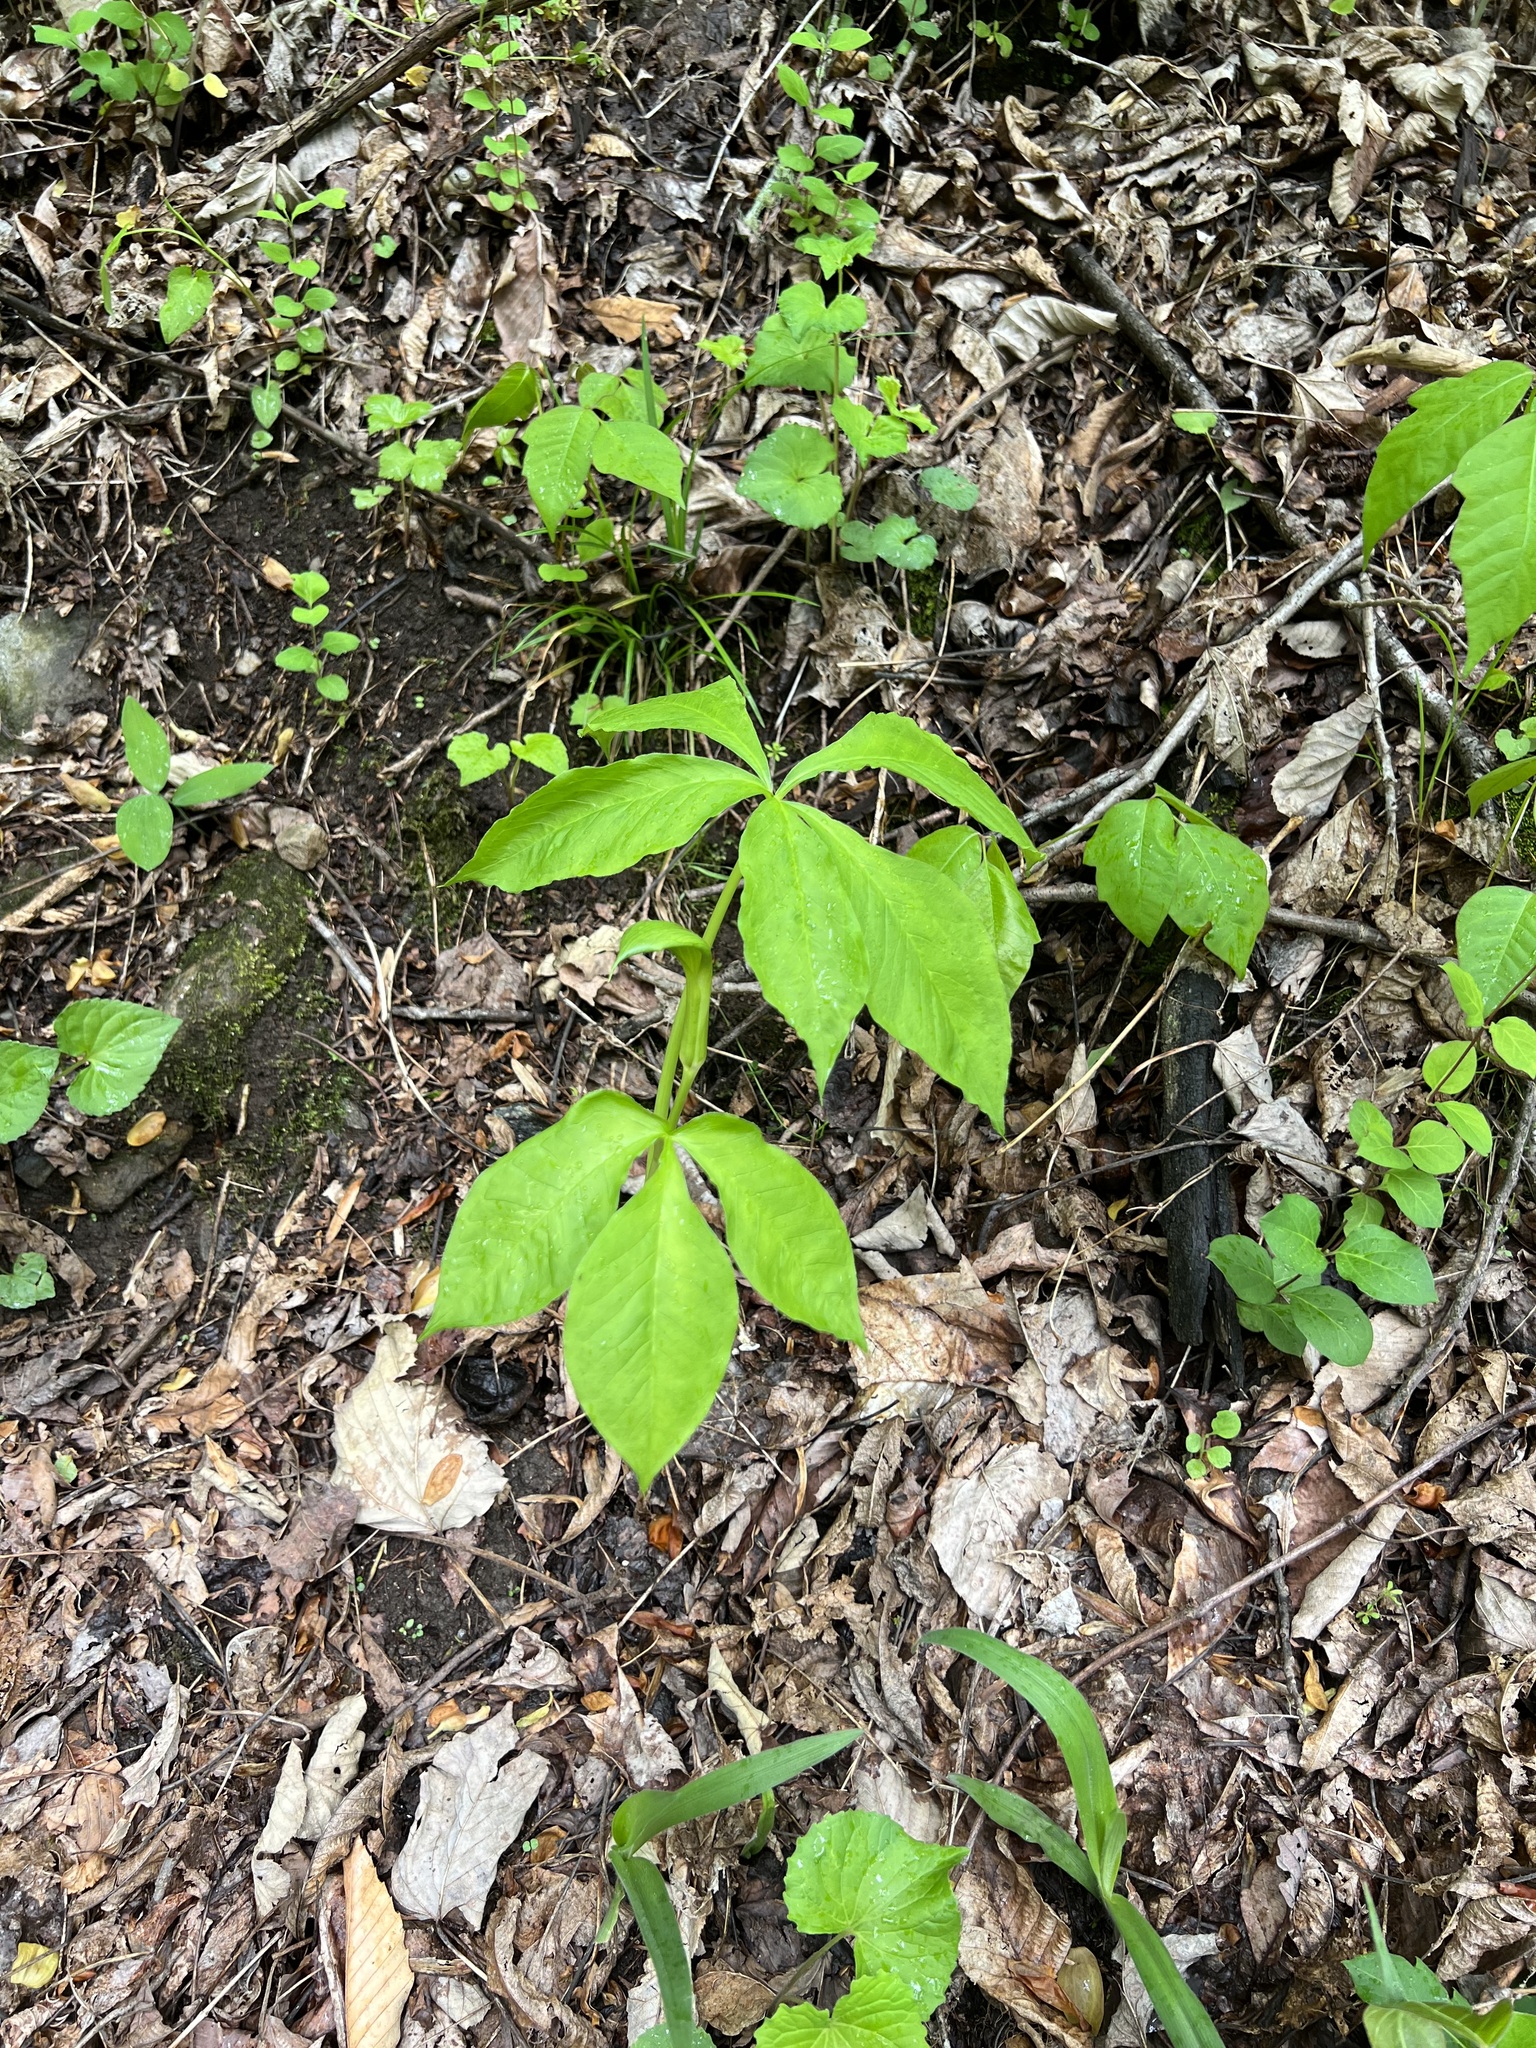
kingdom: Plantae
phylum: Tracheophyta
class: Liliopsida
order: Alismatales
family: Araceae
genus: Arisaema
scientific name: Arisaema quinatum
